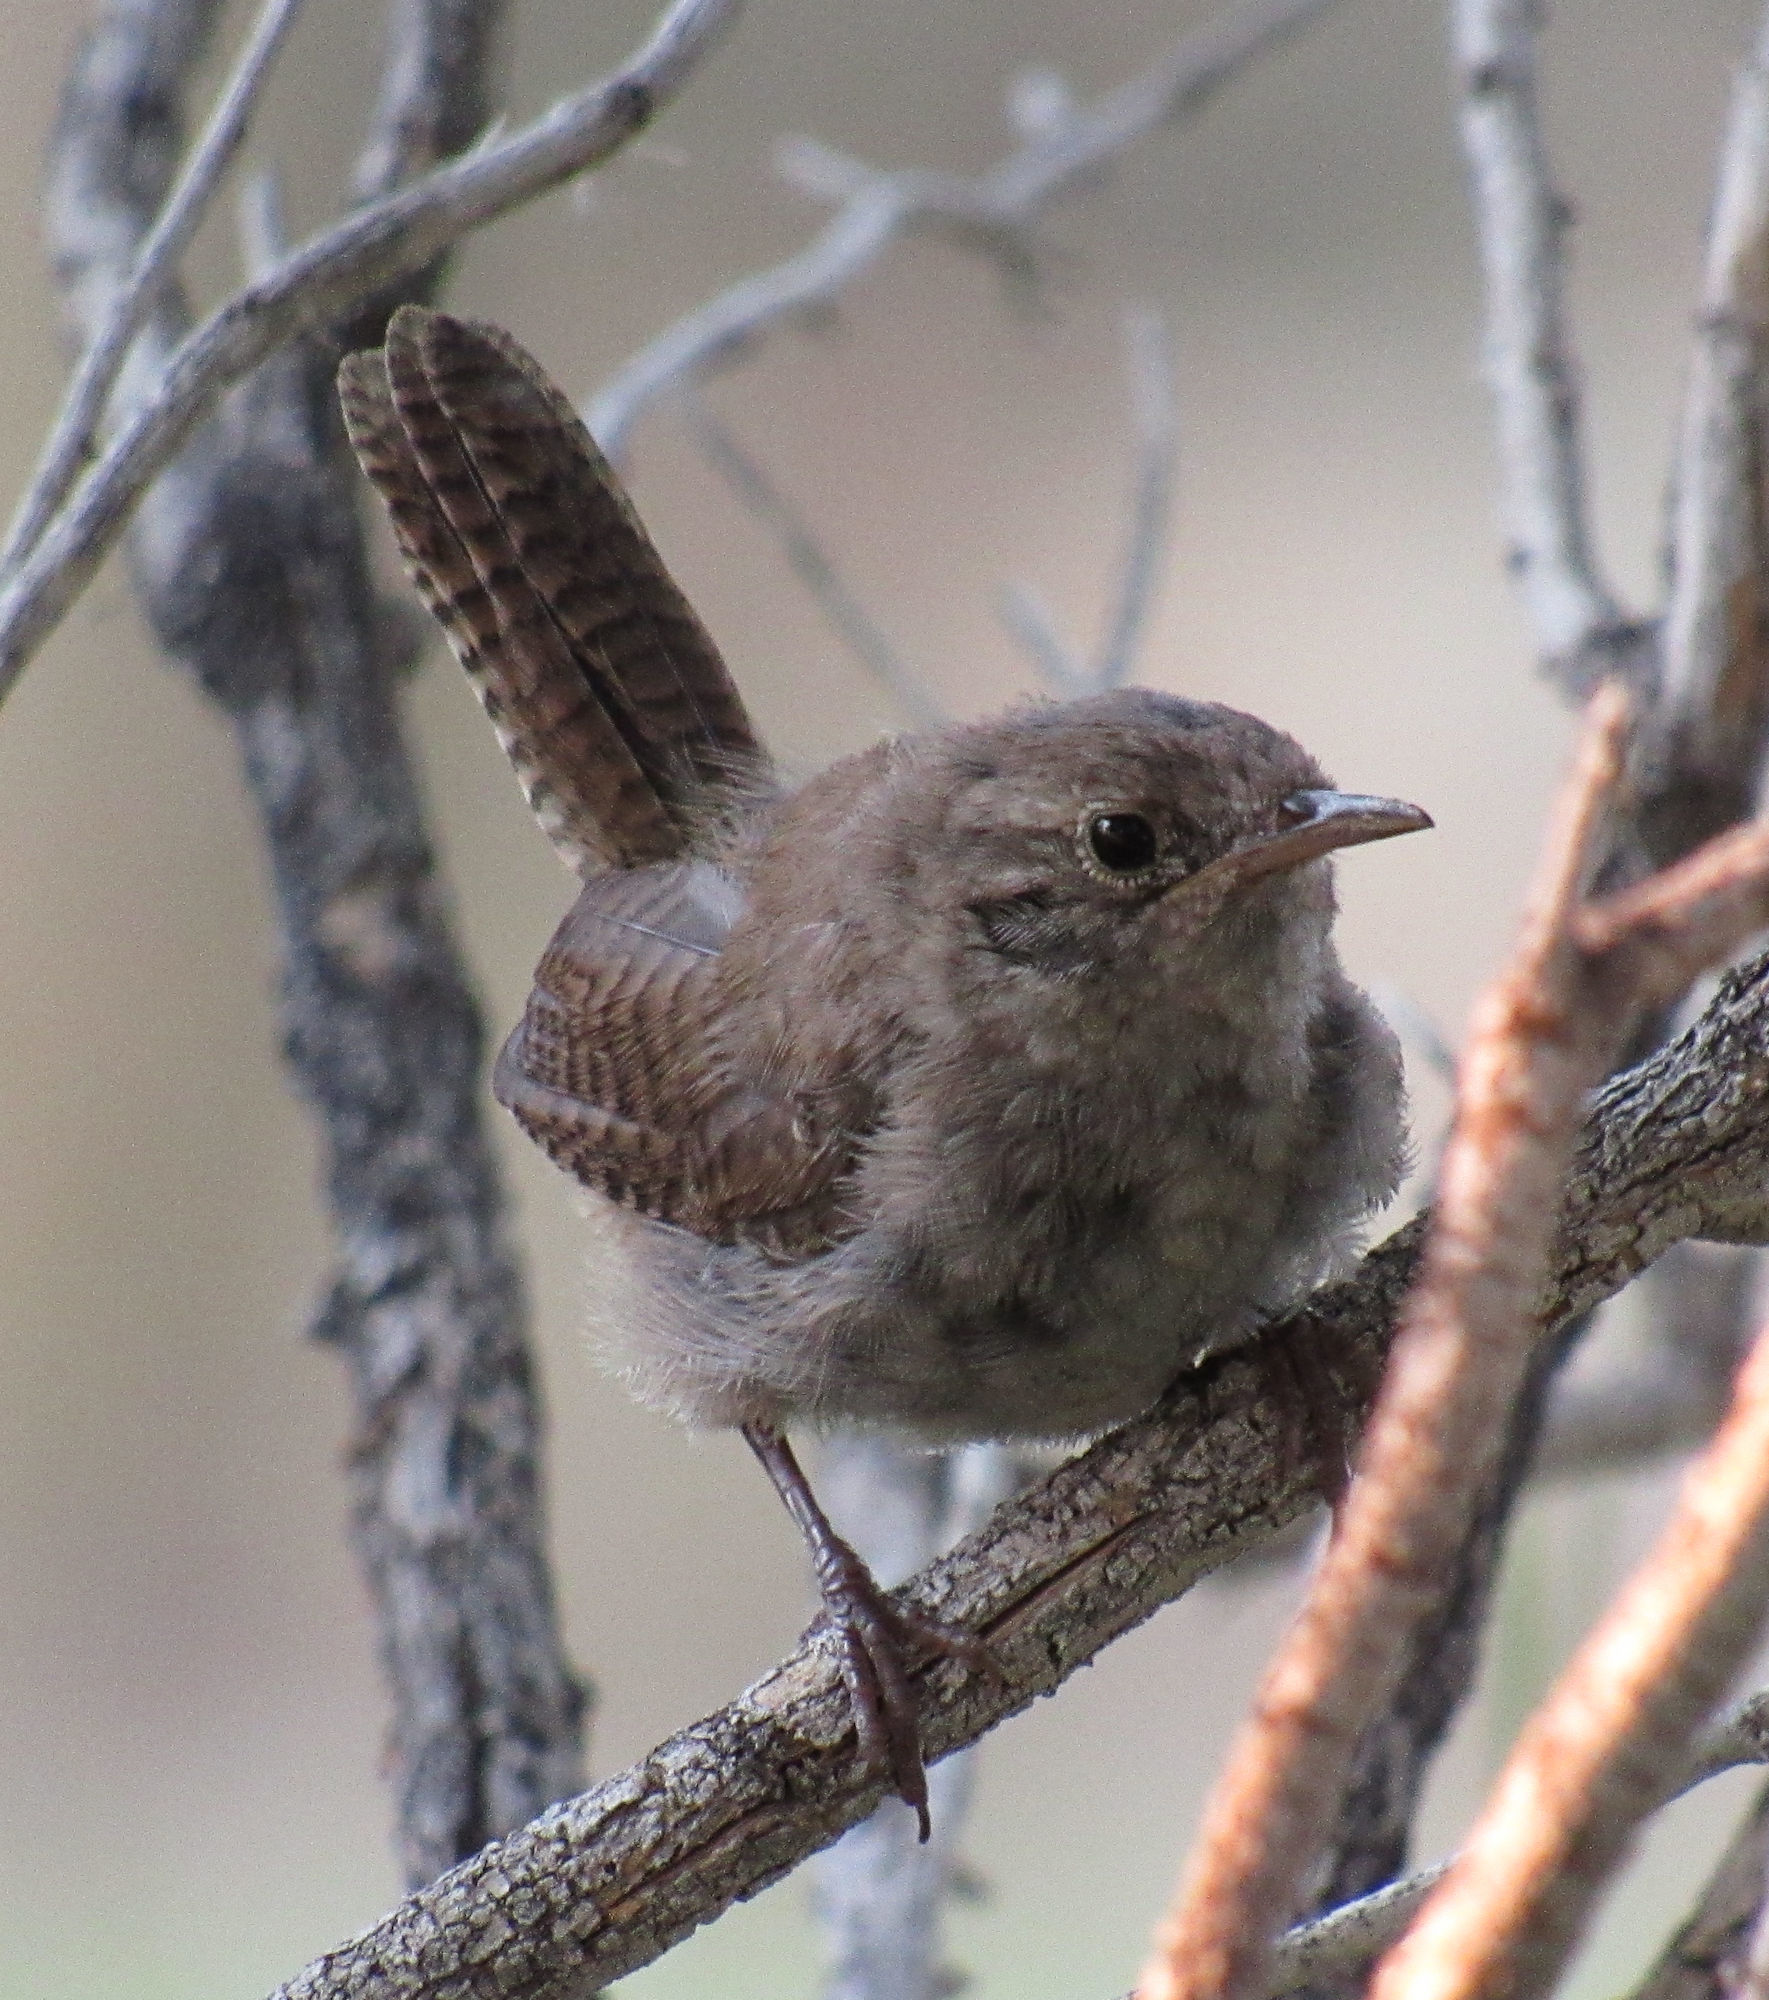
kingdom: Animalia
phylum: Chordata
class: Aves
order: Passeriformes
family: Troglodytidae
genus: Troglodytes
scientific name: Troglodytes aedon
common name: House wren
